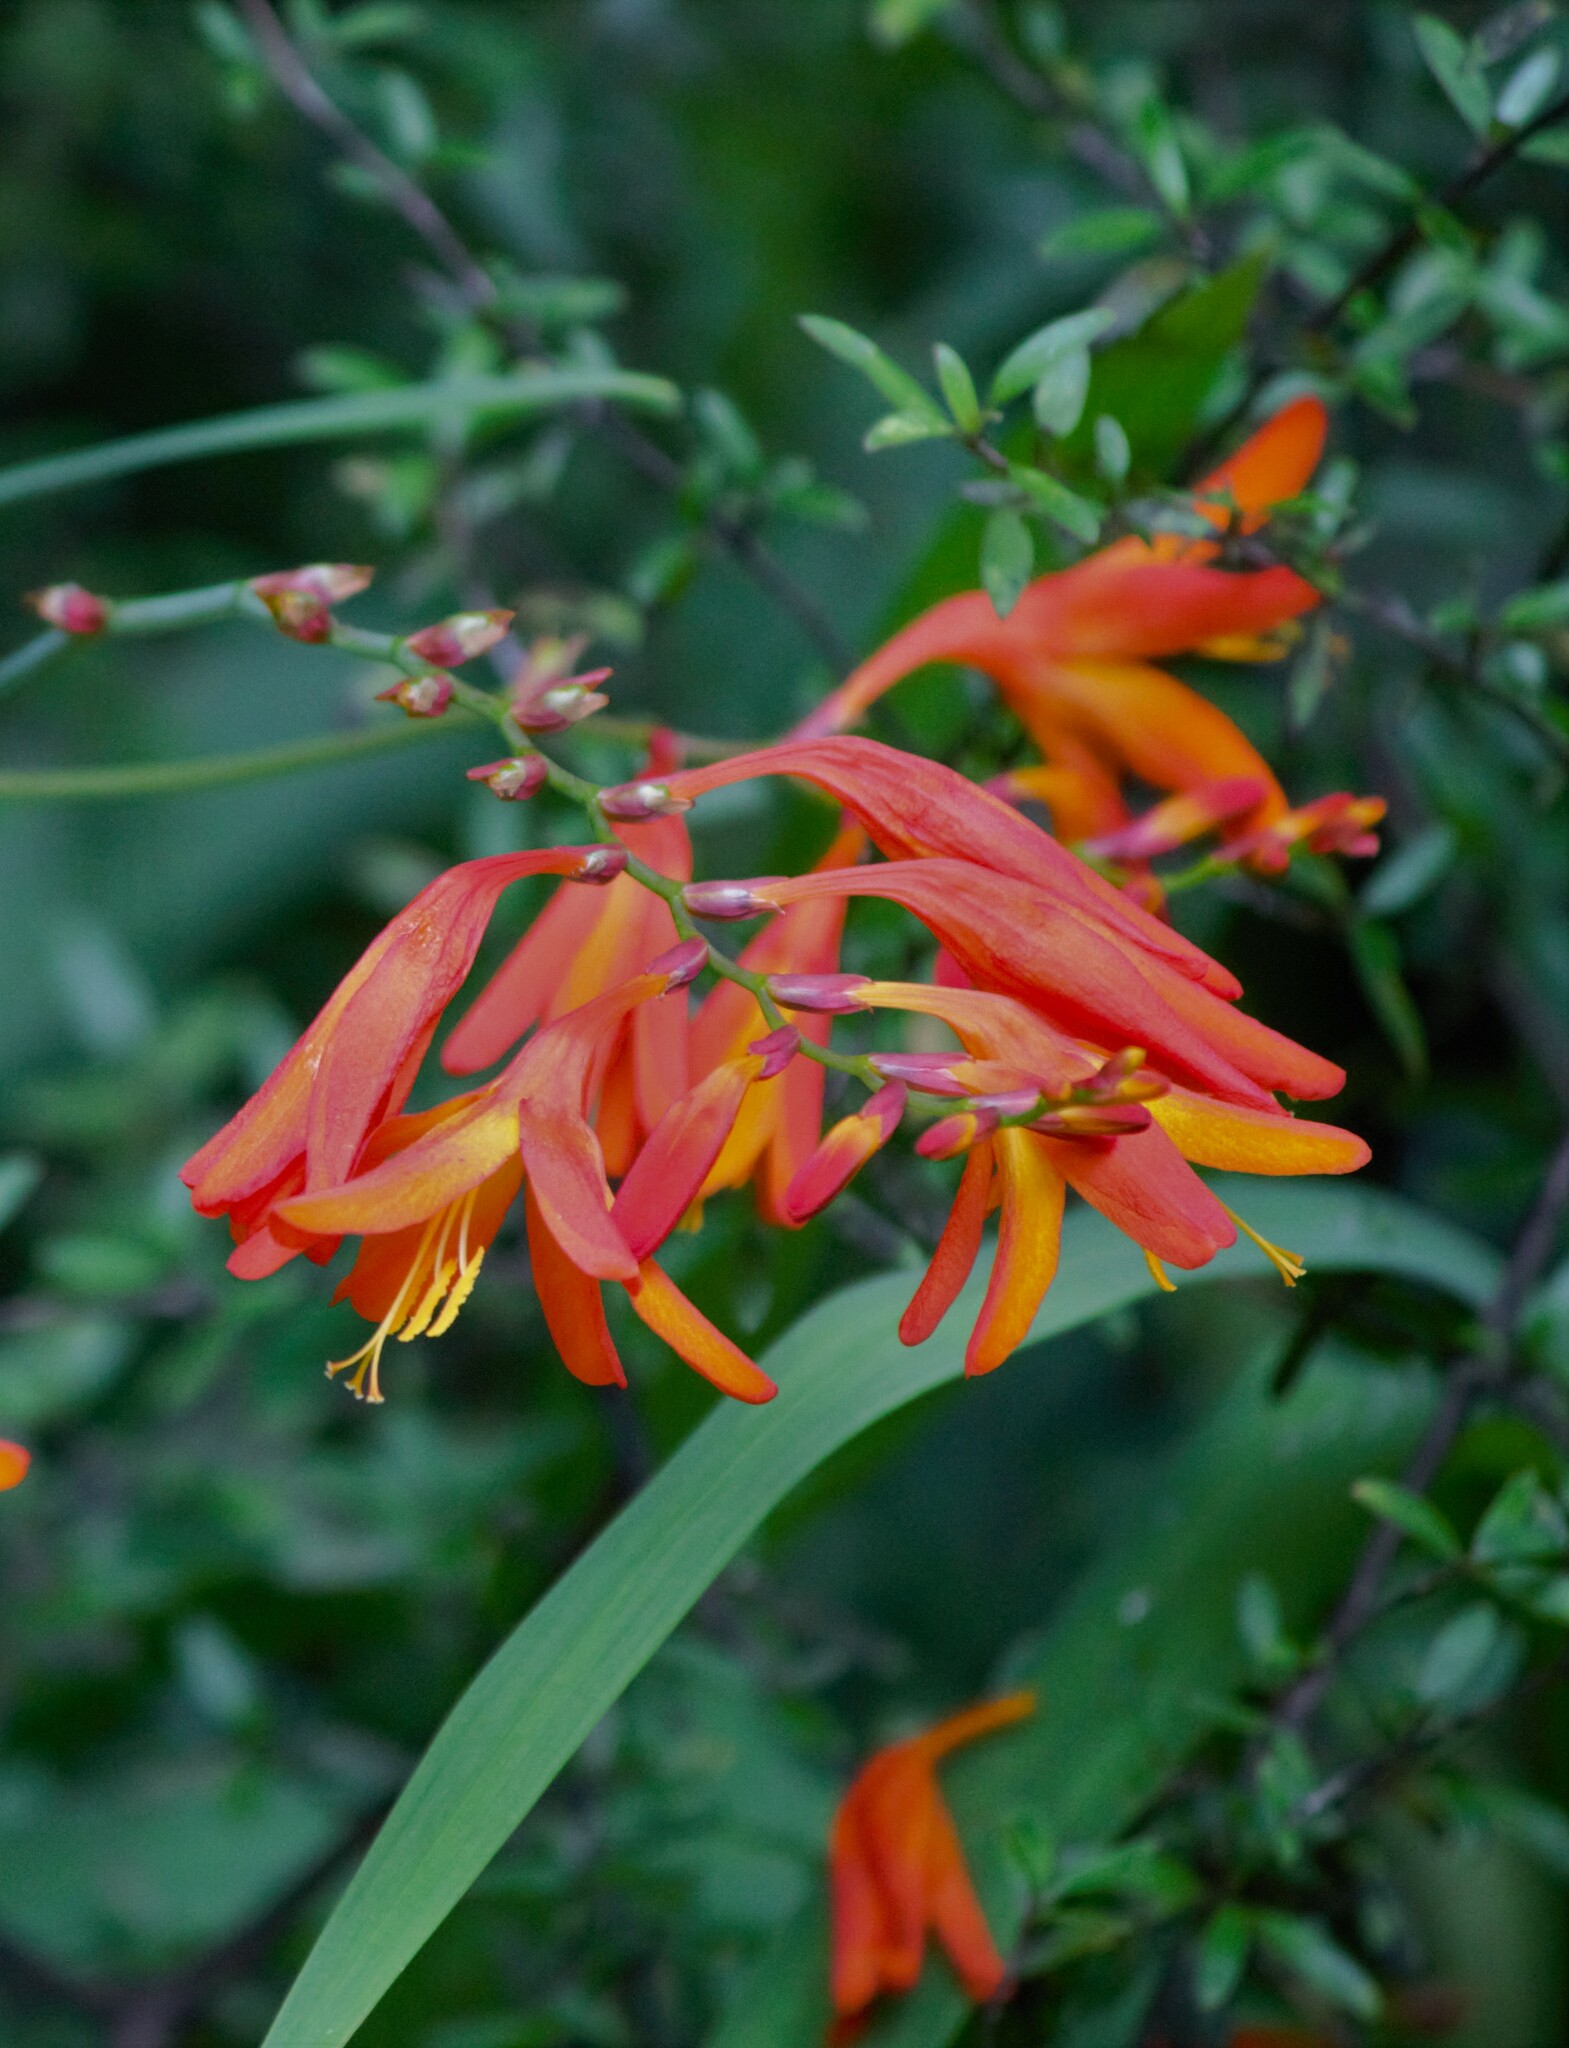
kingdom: Plantae
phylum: Tracheophyta
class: Liliopsida
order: Asparagales
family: Iridaceae
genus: Crocosmia
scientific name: Crocosmia crocosmiiflora
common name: Montbretia
